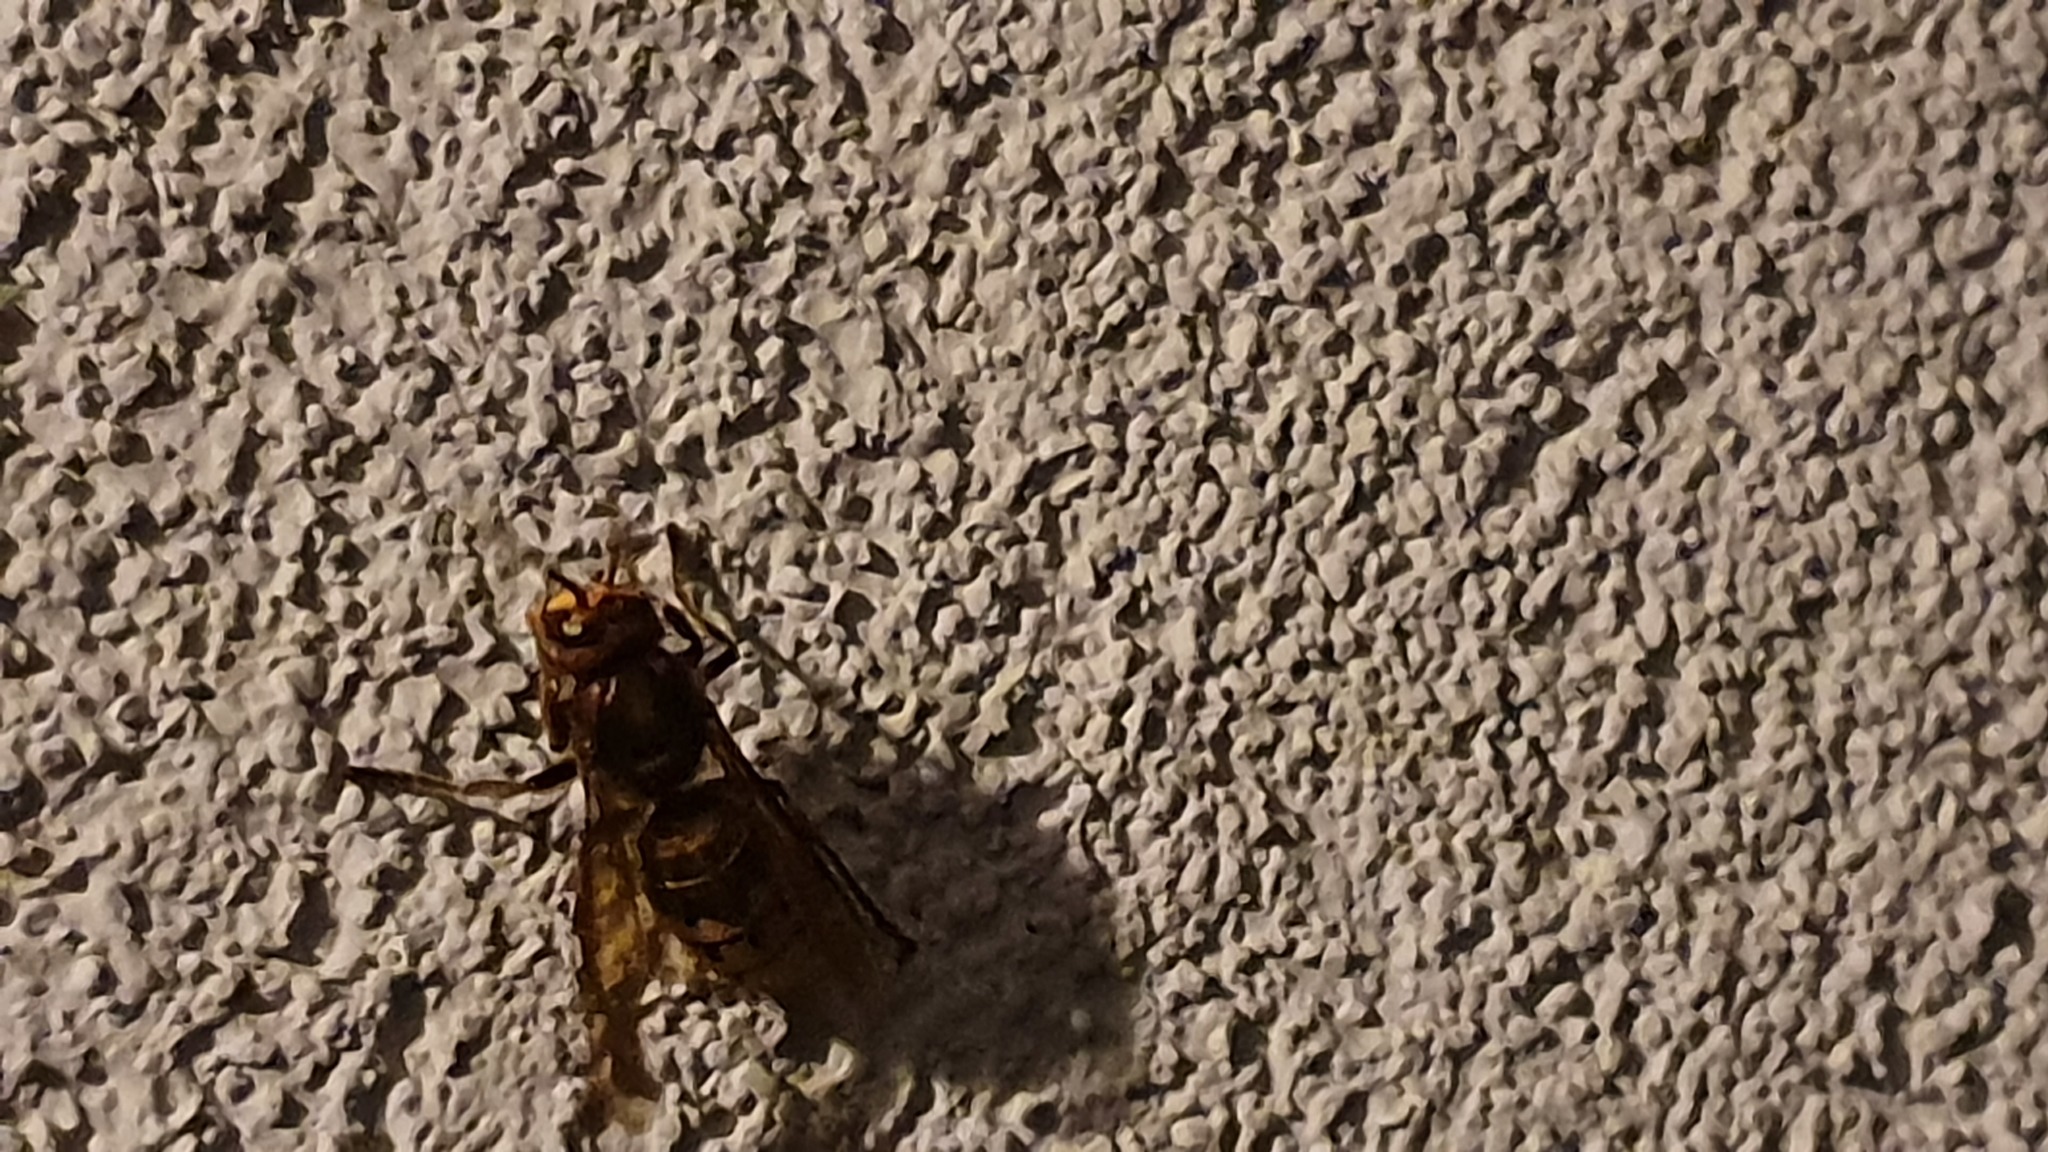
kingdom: Animalia
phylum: Arthropoda
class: Insecta
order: Hymenoptera
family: Vespidae
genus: Vespa
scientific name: Vespa crabro
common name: Hornet
